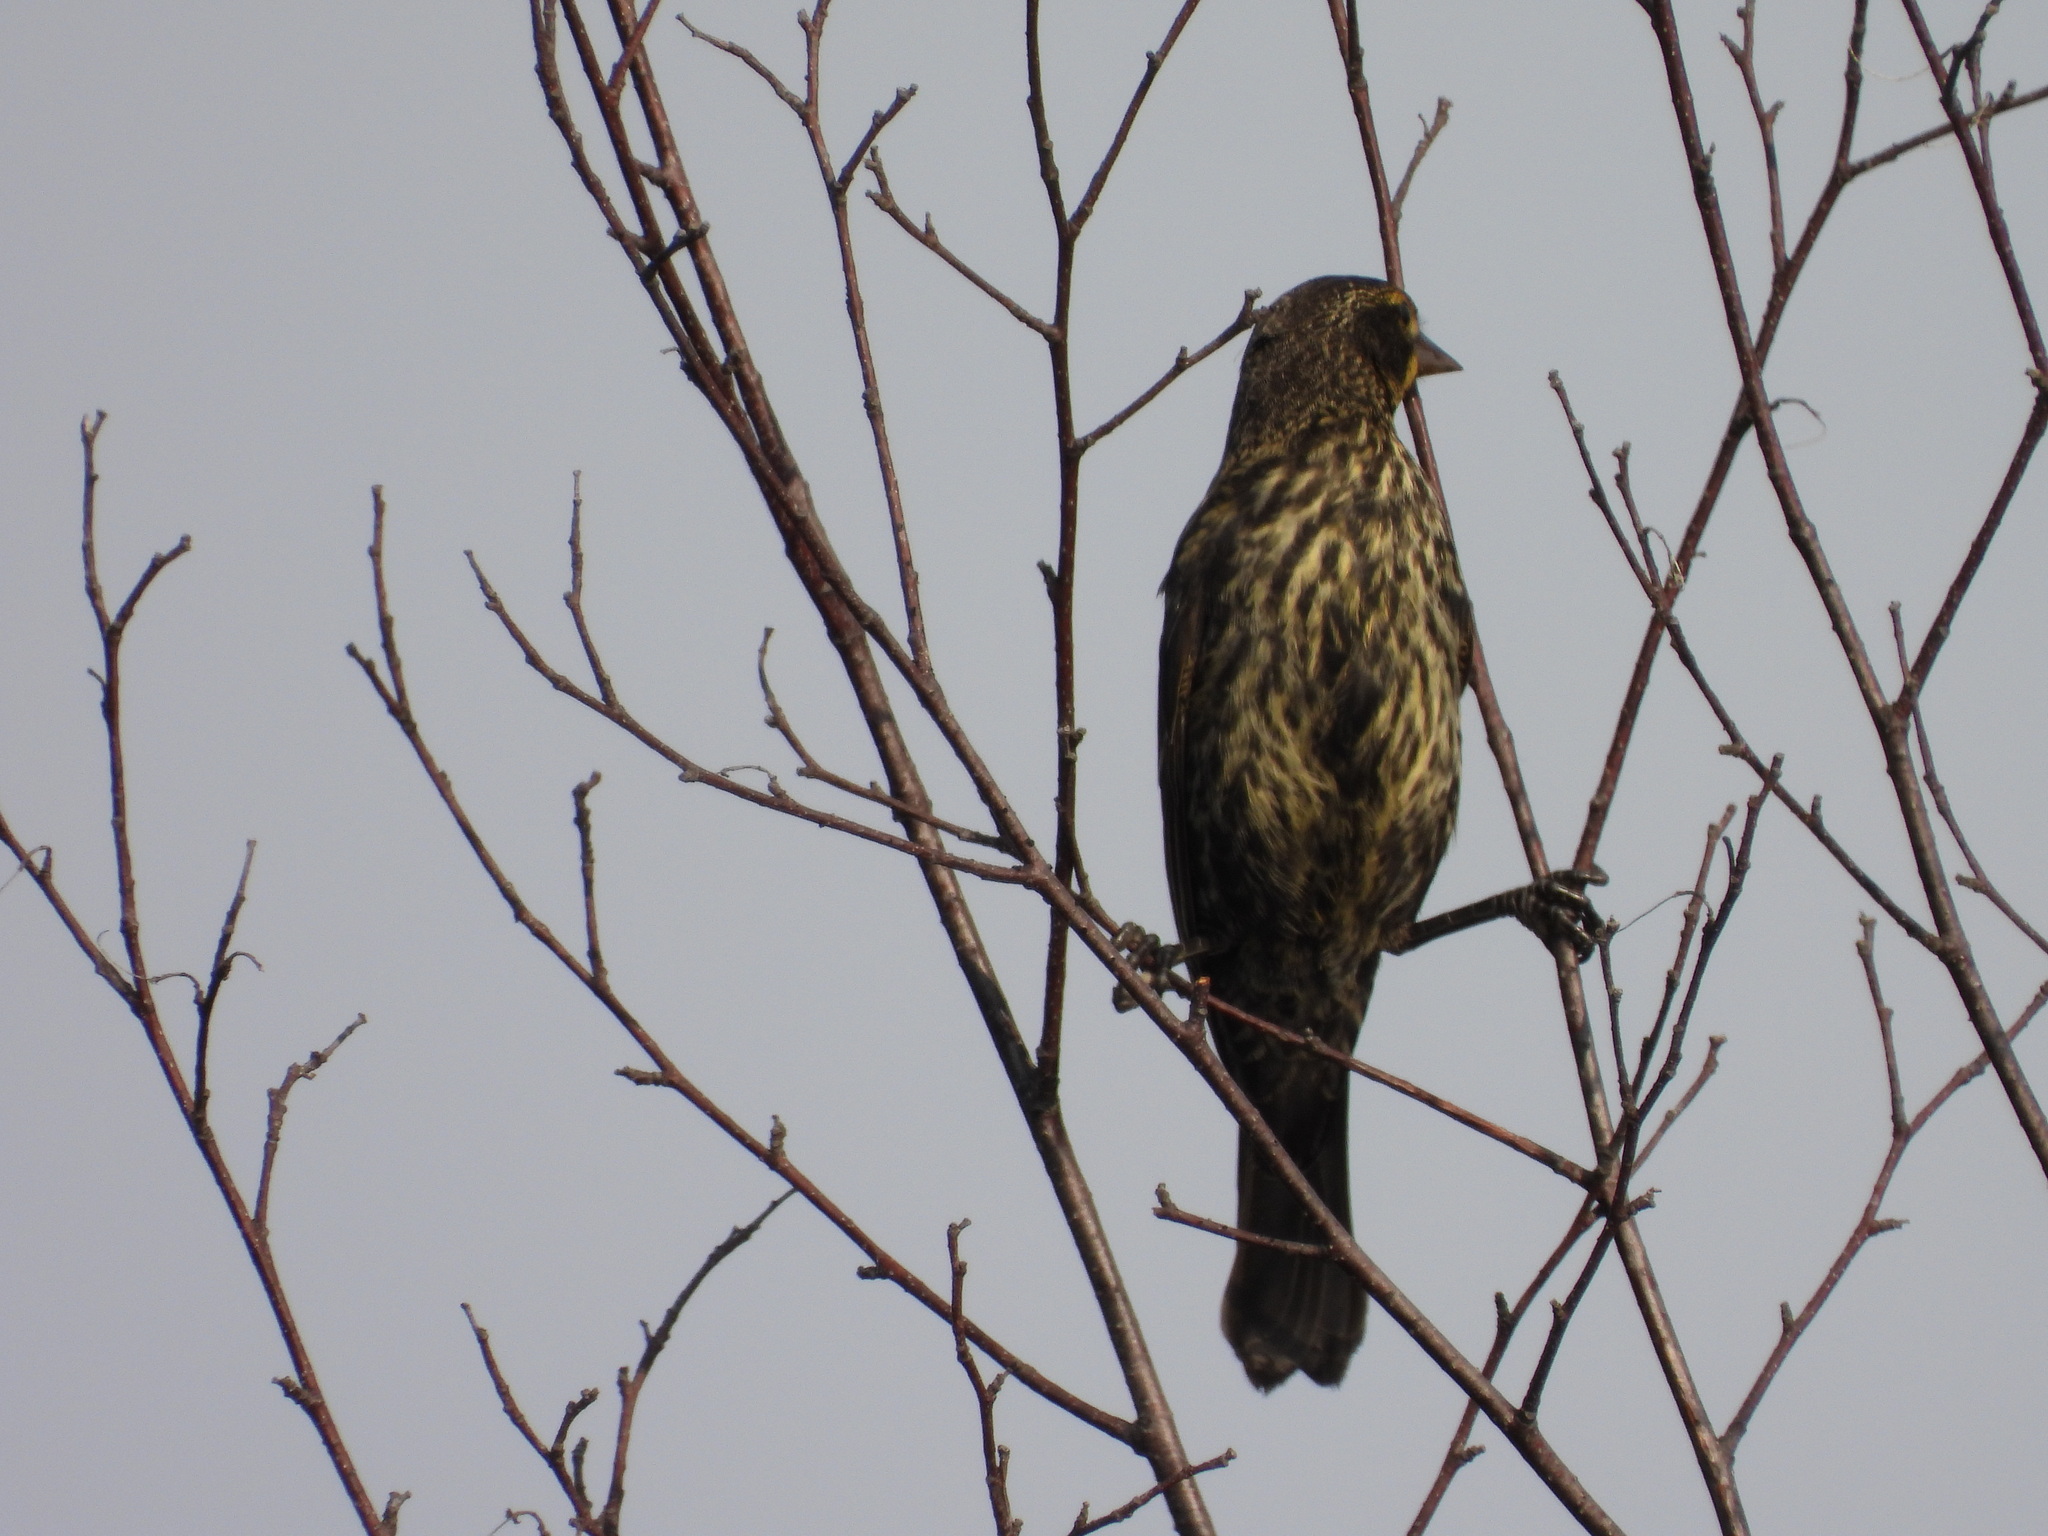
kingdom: Animalia
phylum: Chordata
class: Aves
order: Passeriformes
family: Icteridae
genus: Agelaius
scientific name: Agelaius phoeniceus
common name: Red-winged blackbird
